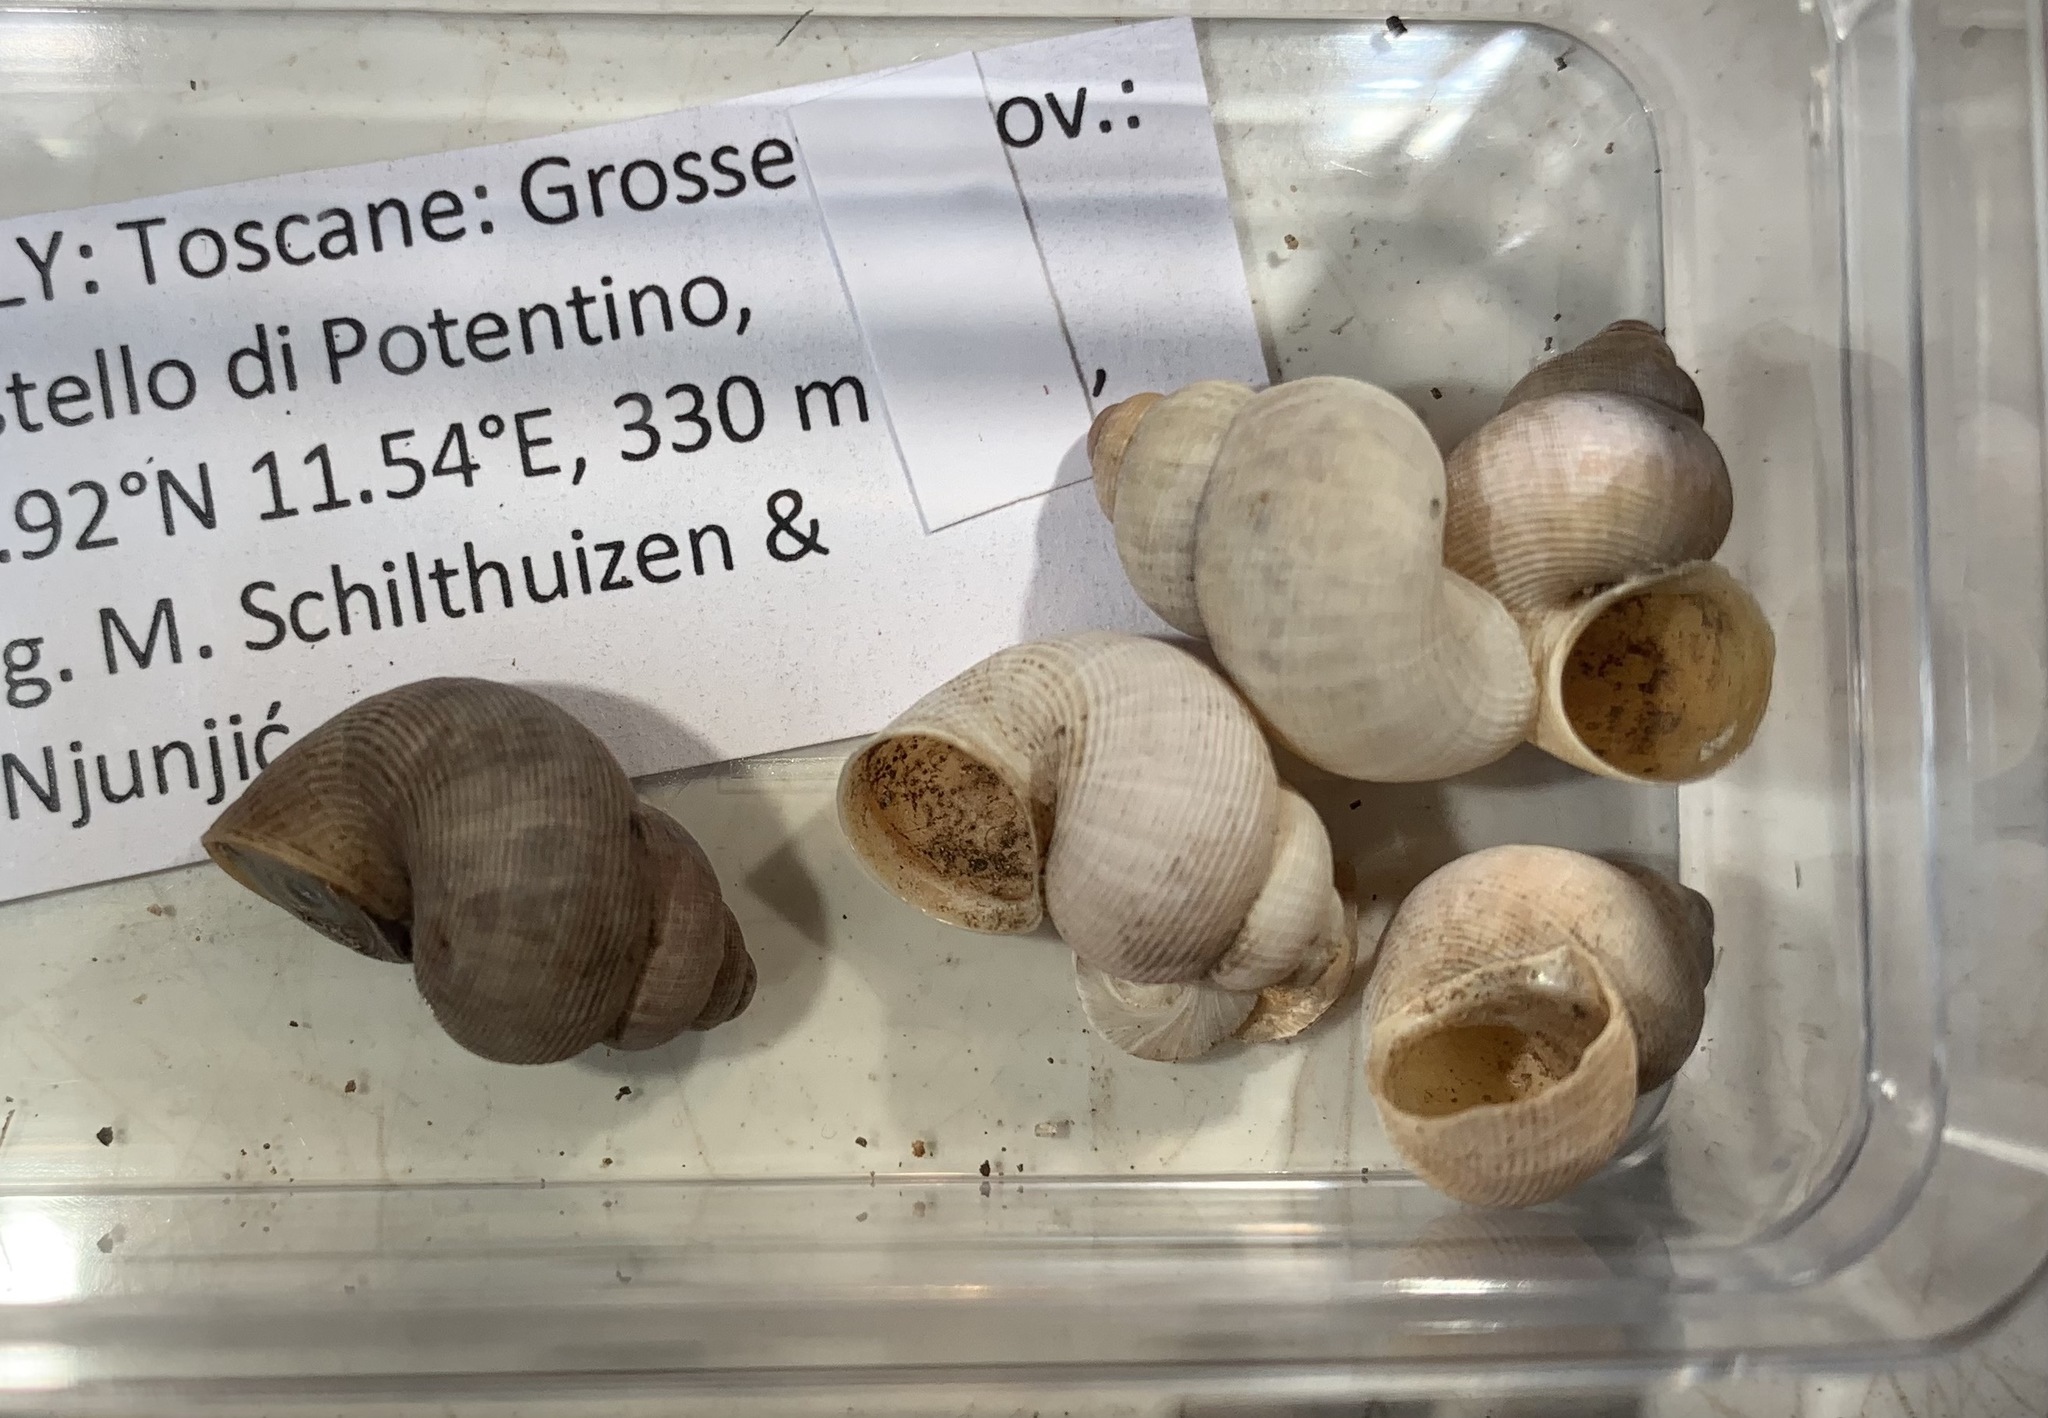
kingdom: Animalia
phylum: Mollusca
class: Gastropoda
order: Littorinimorpha
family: Pomatiidae
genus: Pomatias
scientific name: Pomatias elegans
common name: Red-mouthed snail
